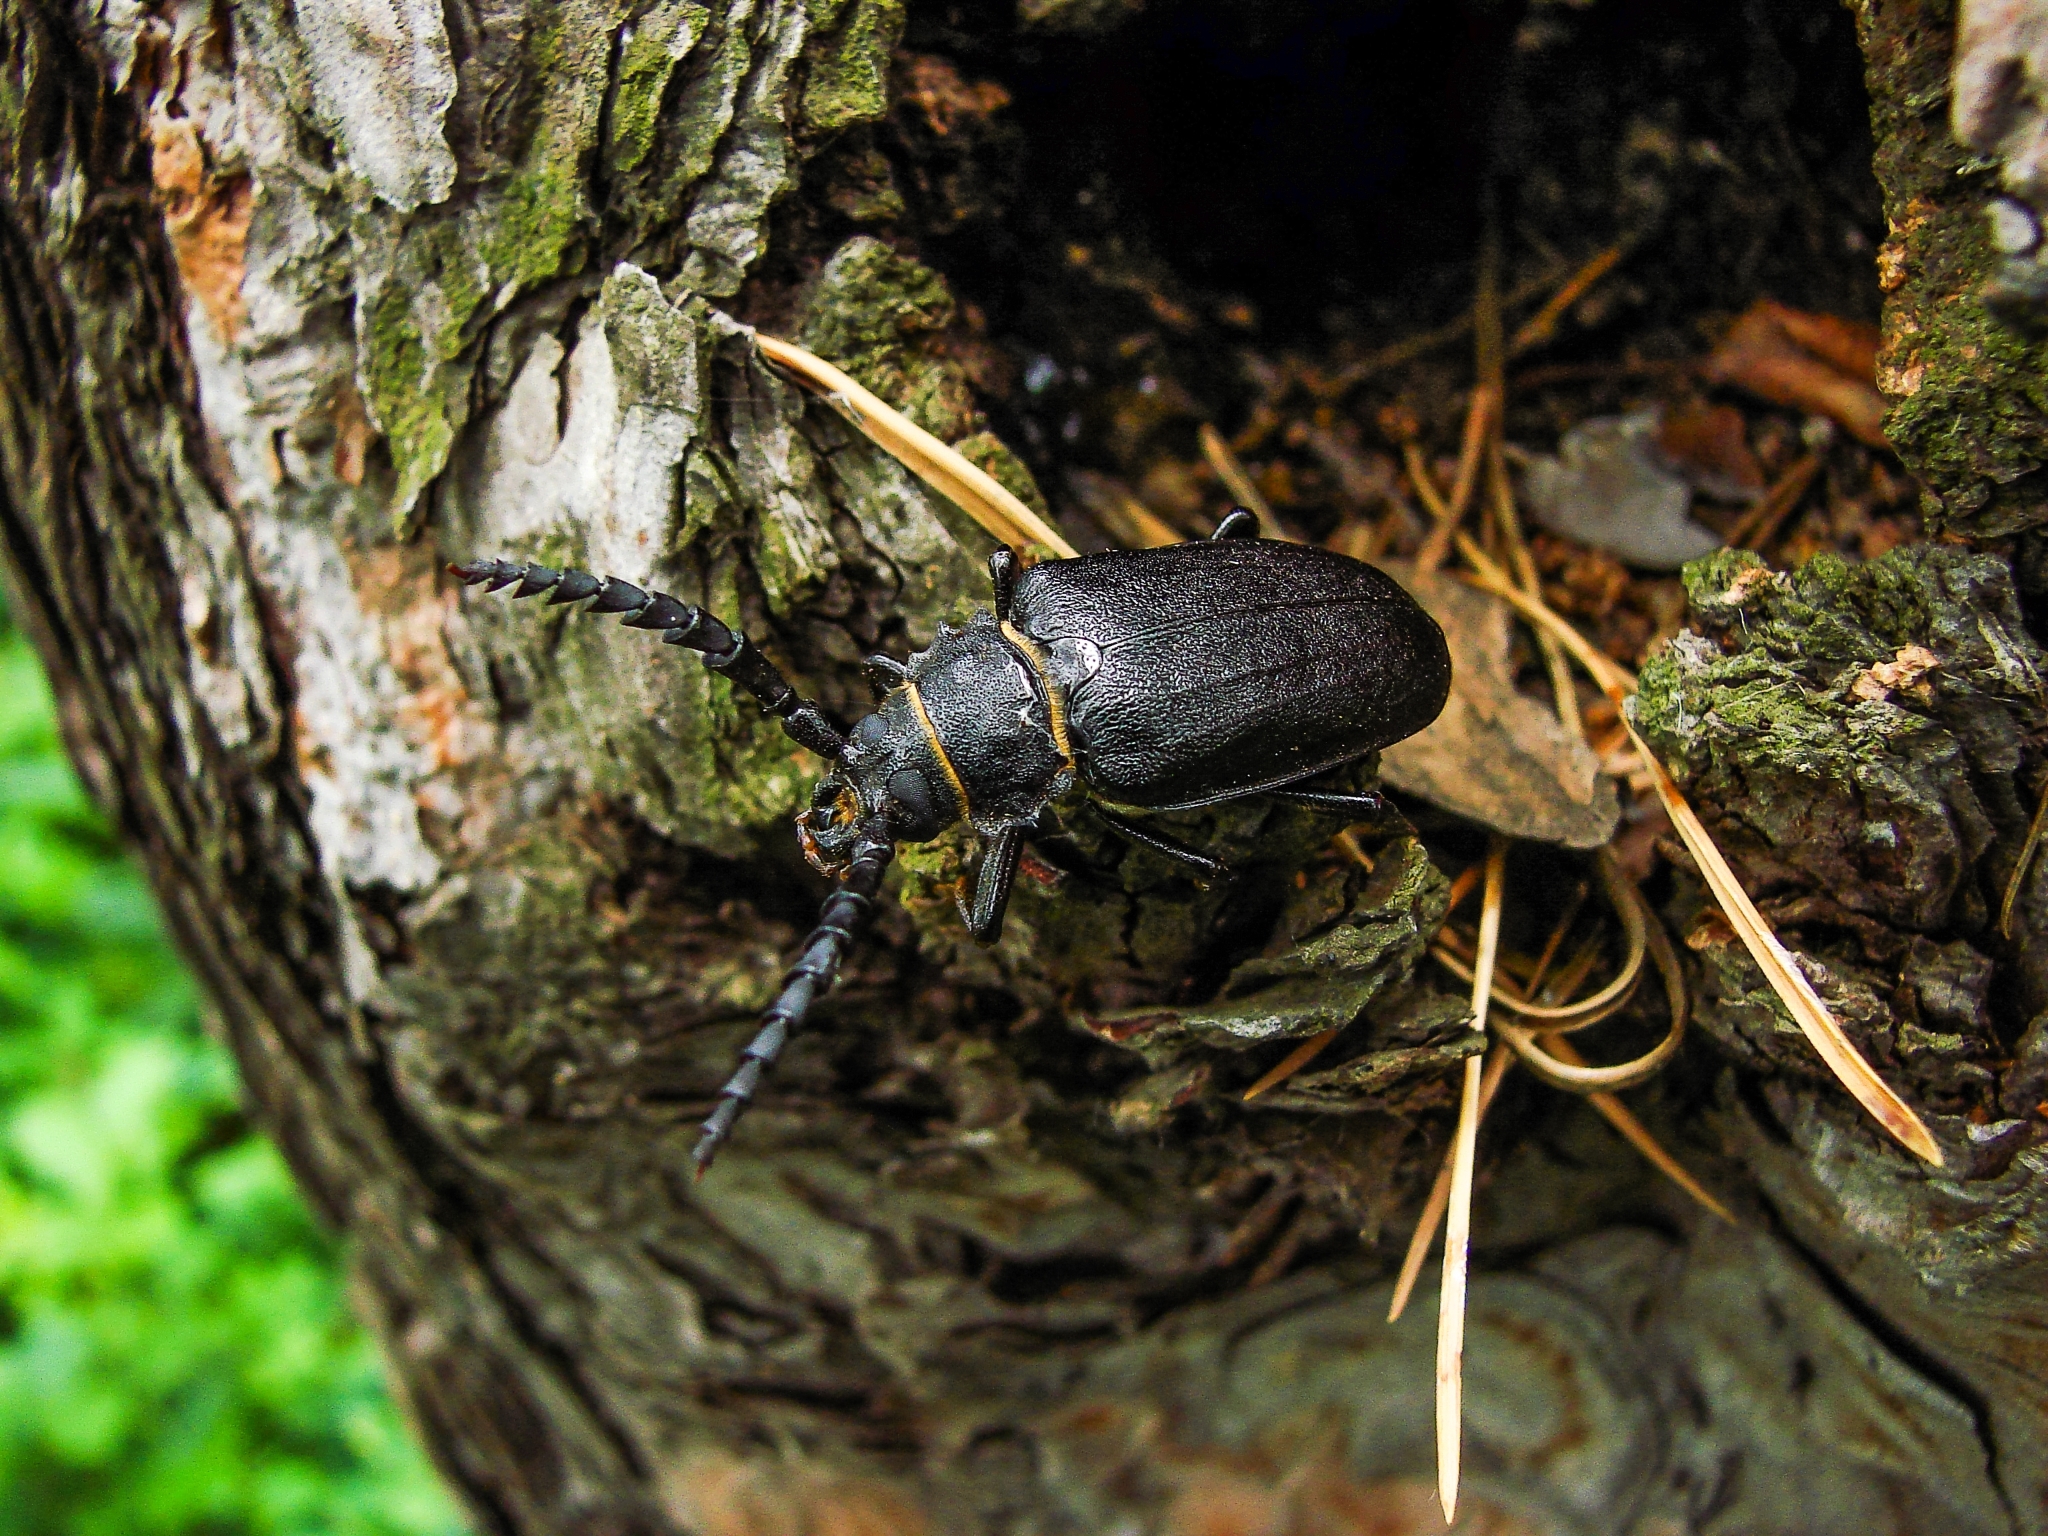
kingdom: Animalia
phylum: Arthropoda
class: Insecta
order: Coleoptera
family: Cerambycidae
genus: Prionus
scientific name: Prionus coriarius
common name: Tanner beetle
